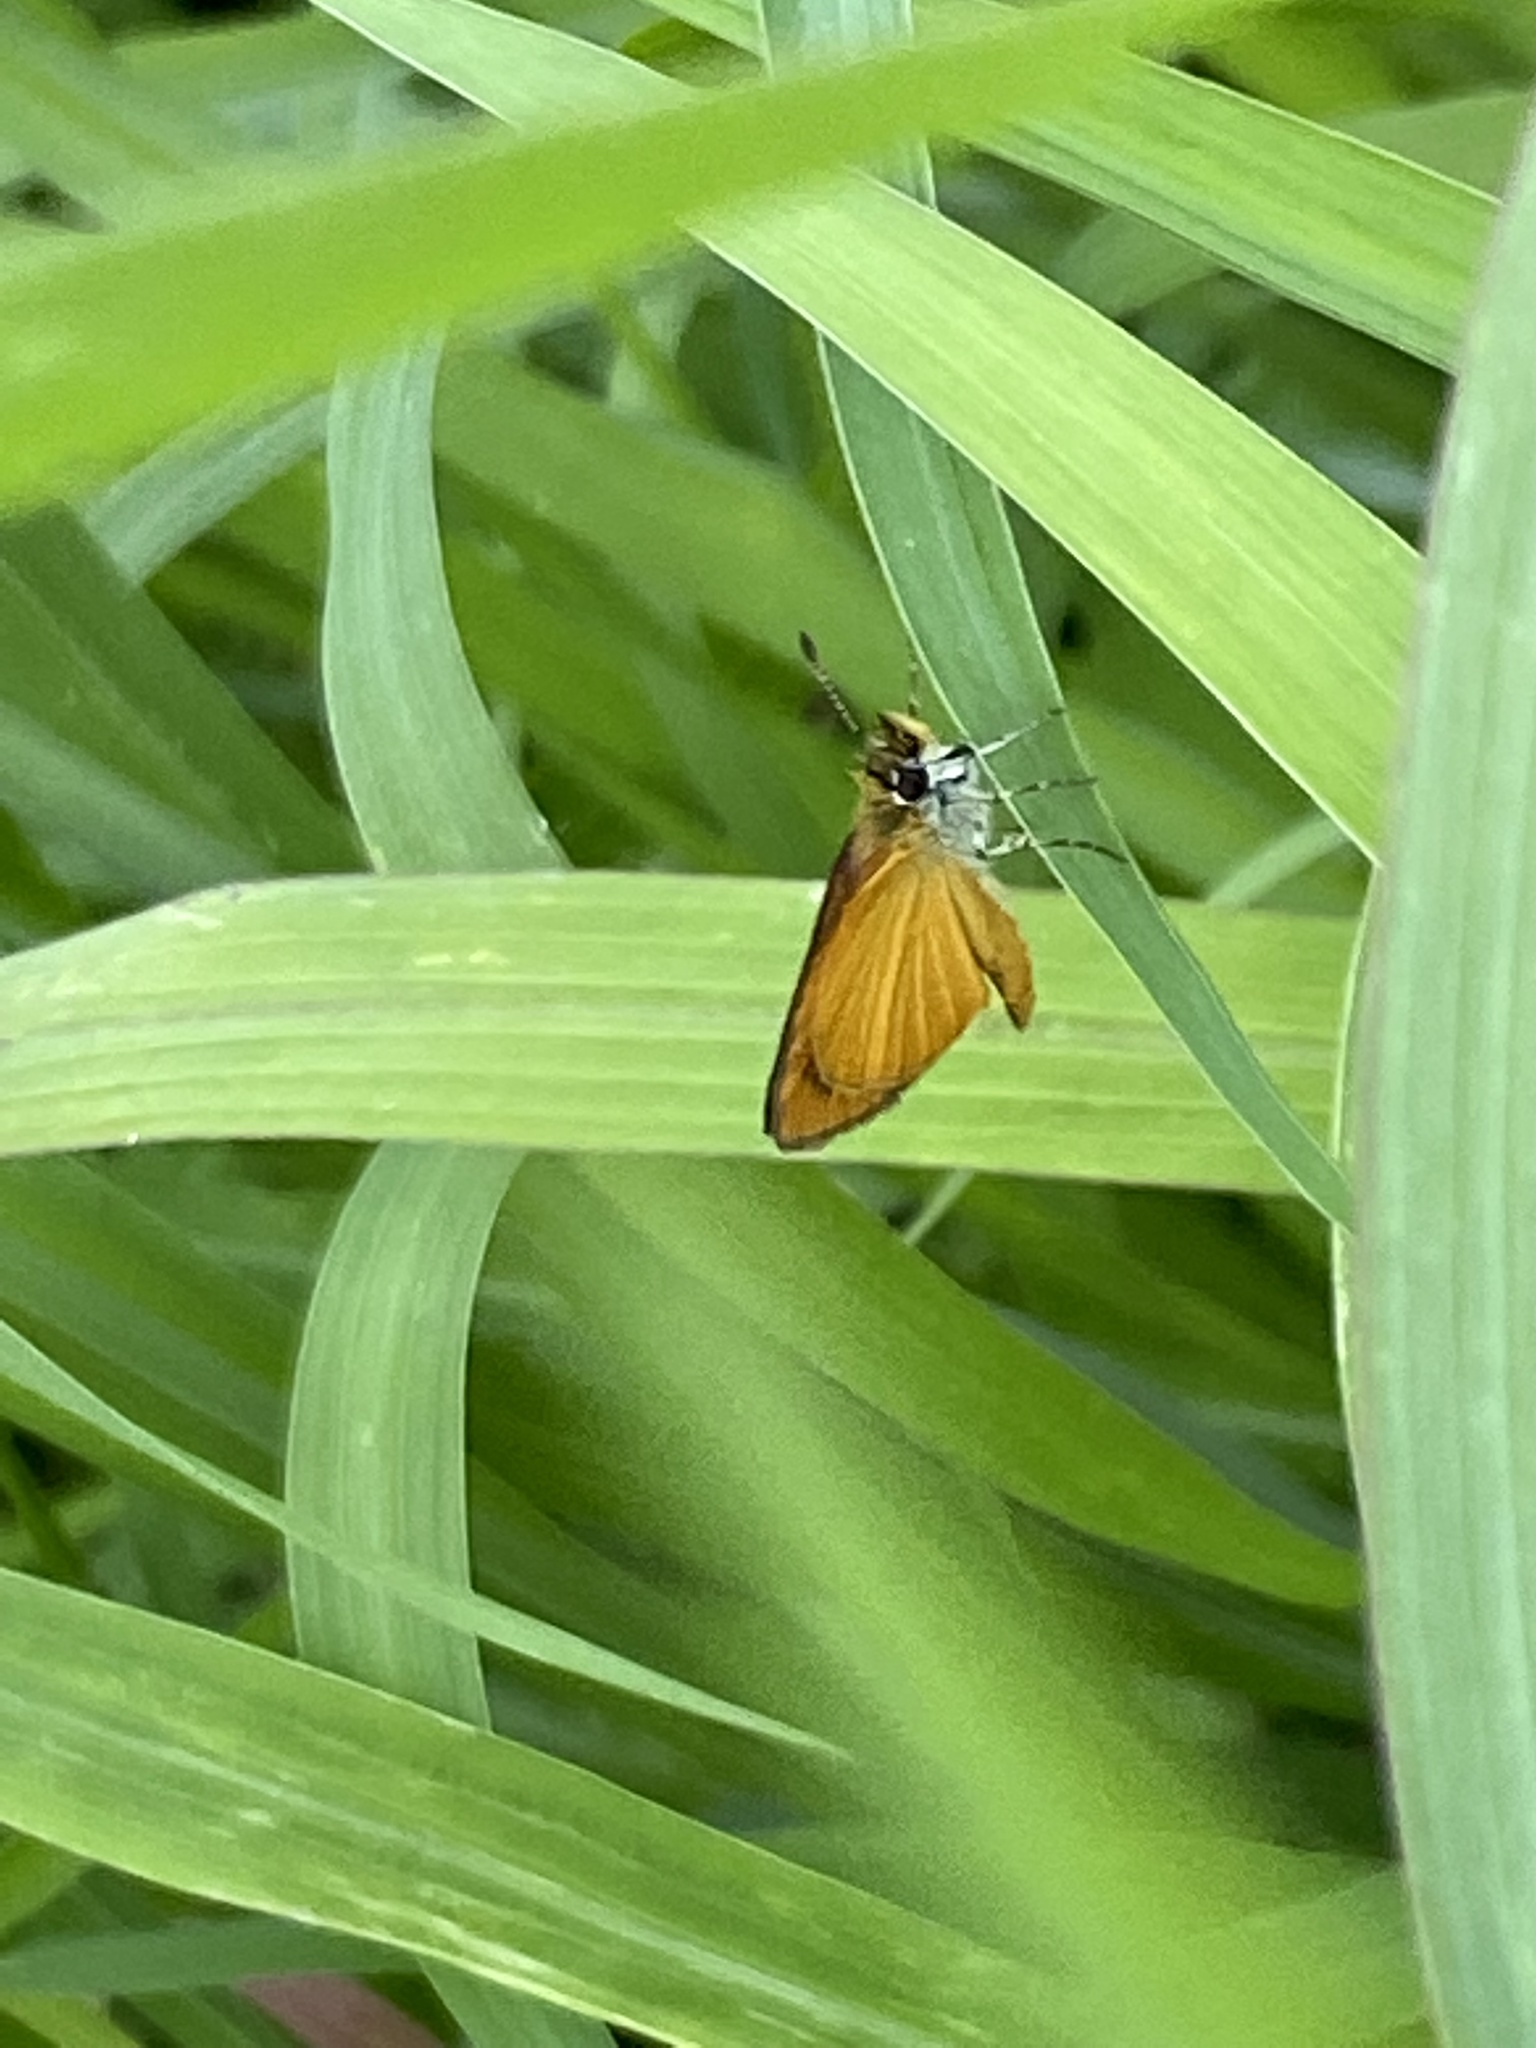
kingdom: Animalia
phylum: Arthropoda
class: Insecta
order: Lepidoptera
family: Hesperiidae
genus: Ancyloxypha
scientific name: Ancyloxypha numitor
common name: Least skipper
